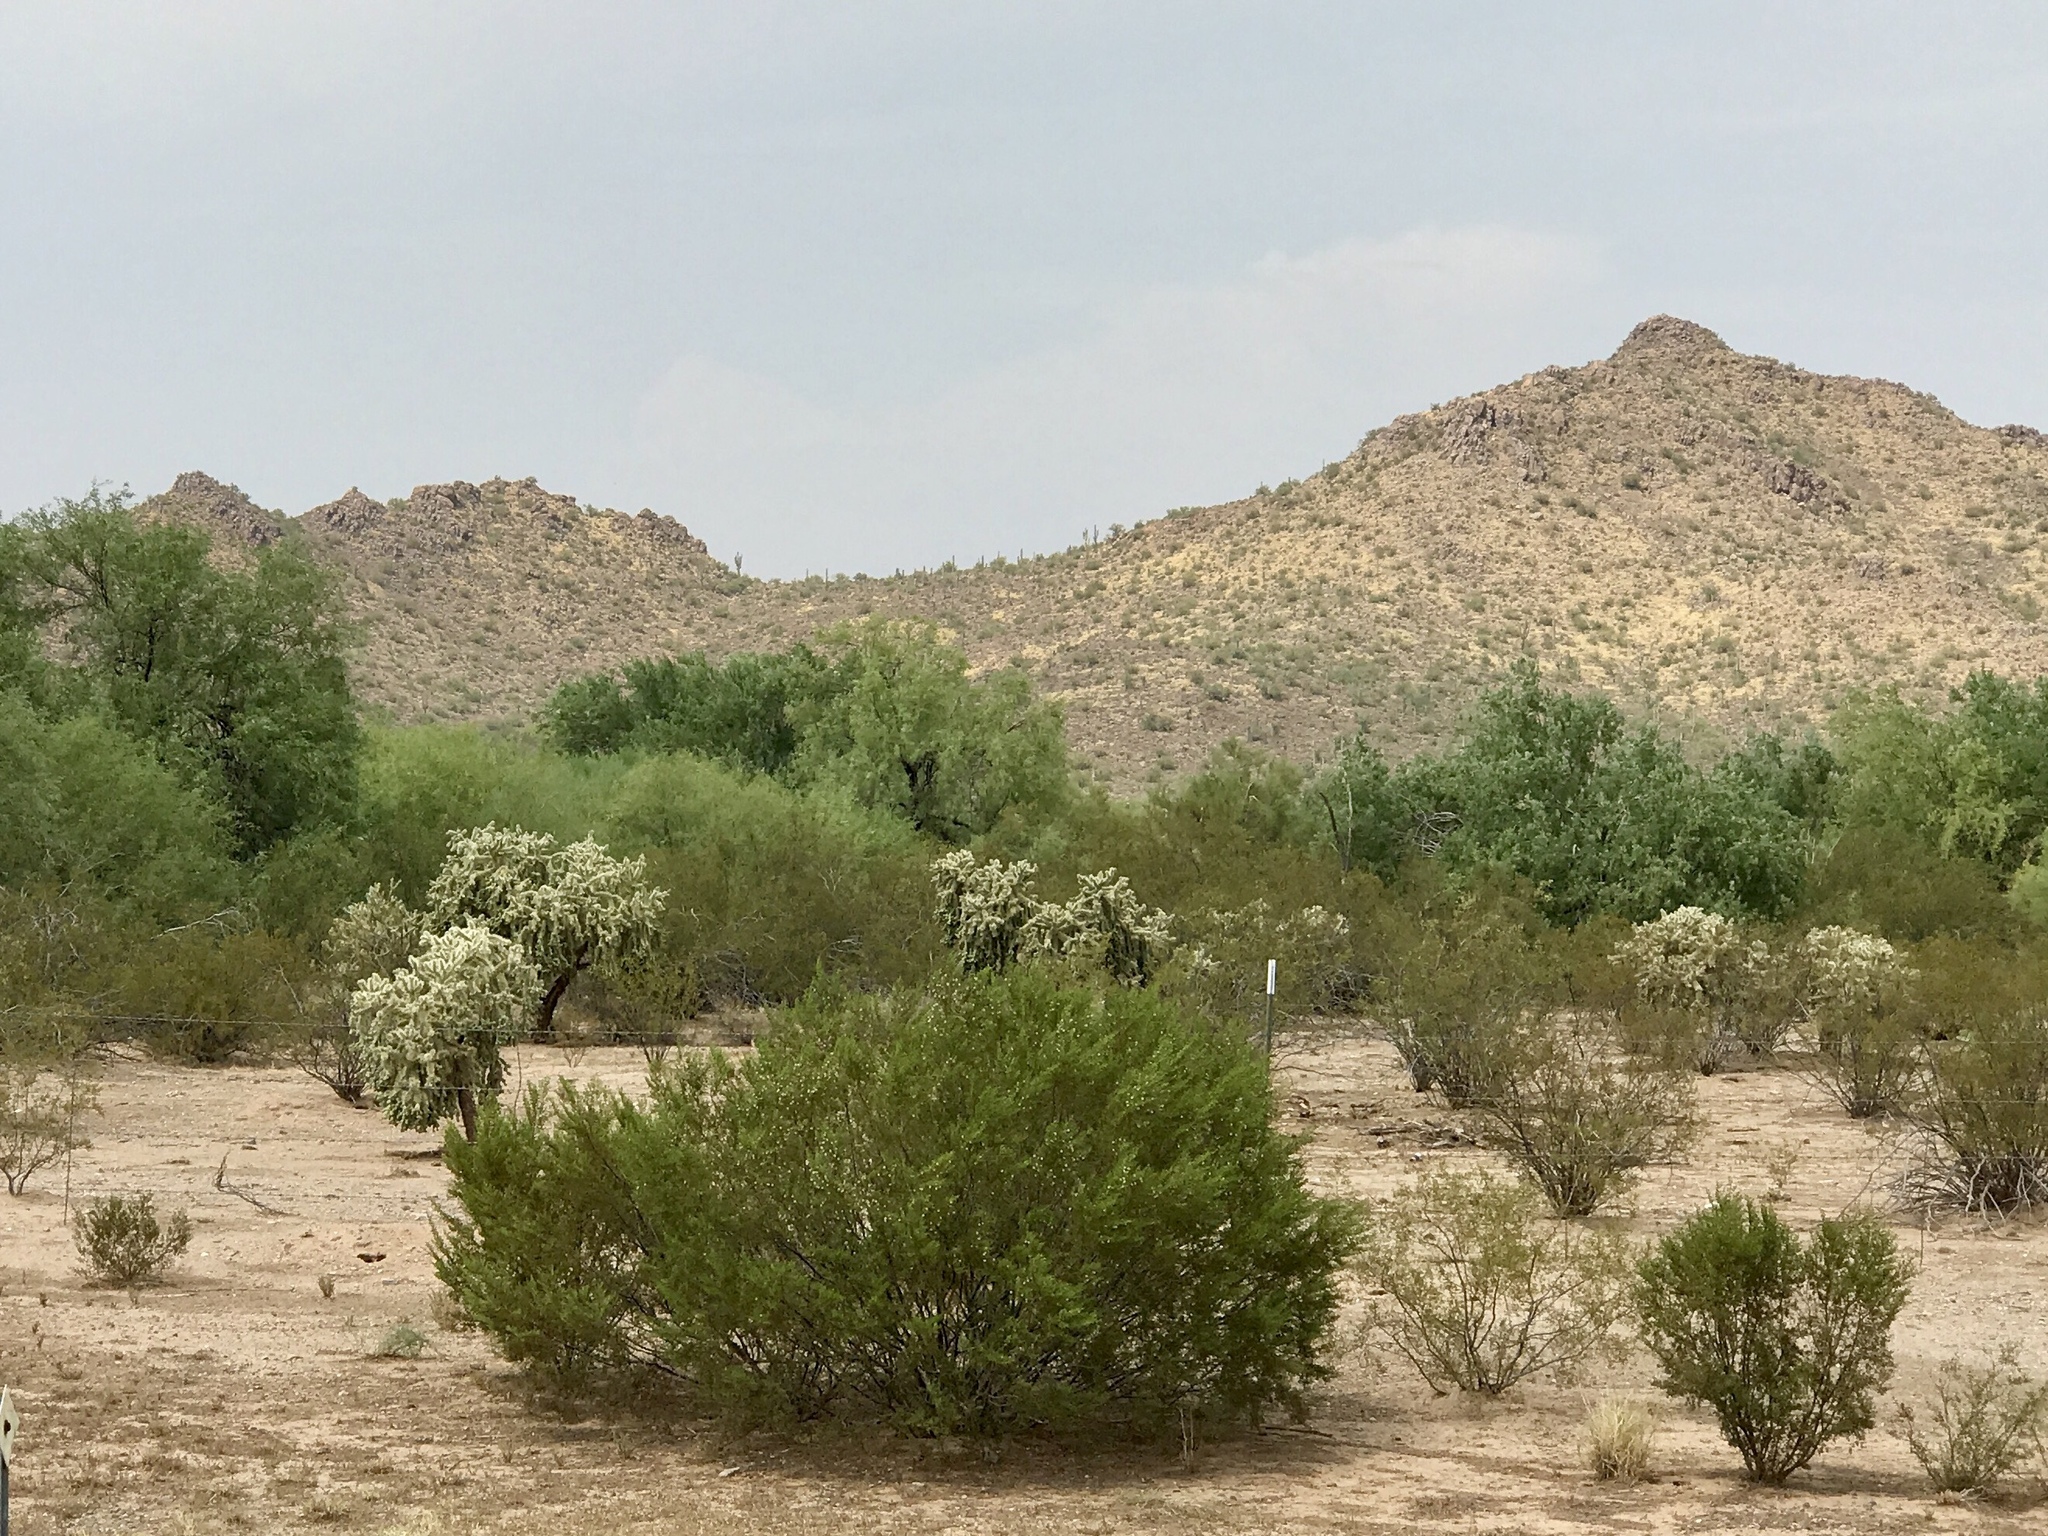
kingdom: Plantae
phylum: Tracheophyta
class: Magnoliopsida
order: Zygophyllales
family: Zygophyllaceae
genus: Larrea
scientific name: Larrea tridentata
